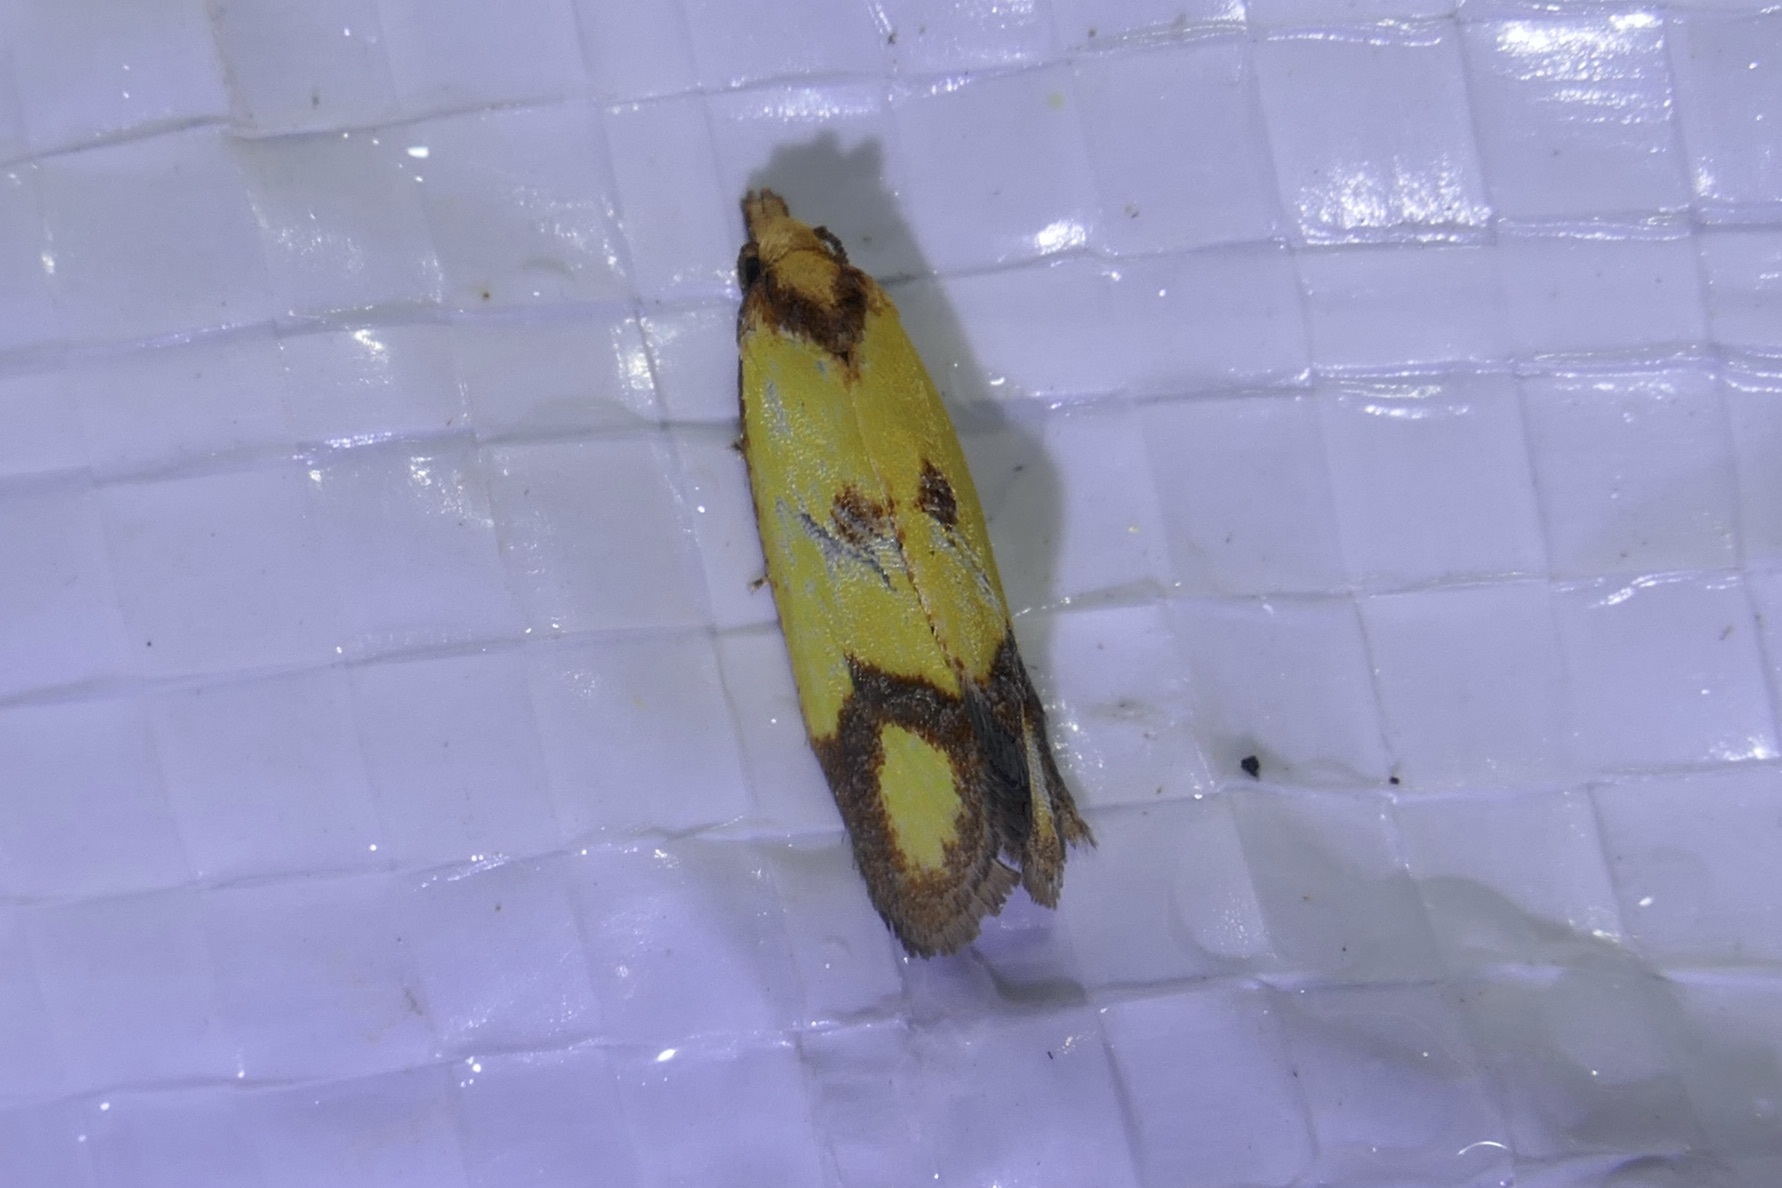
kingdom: Animalia
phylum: Arthropoda
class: Insecta
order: Lepidoptera
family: Tortricidae
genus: Agapeta
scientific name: Agapeta zoegana
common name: Sulfur knapweed root moth
